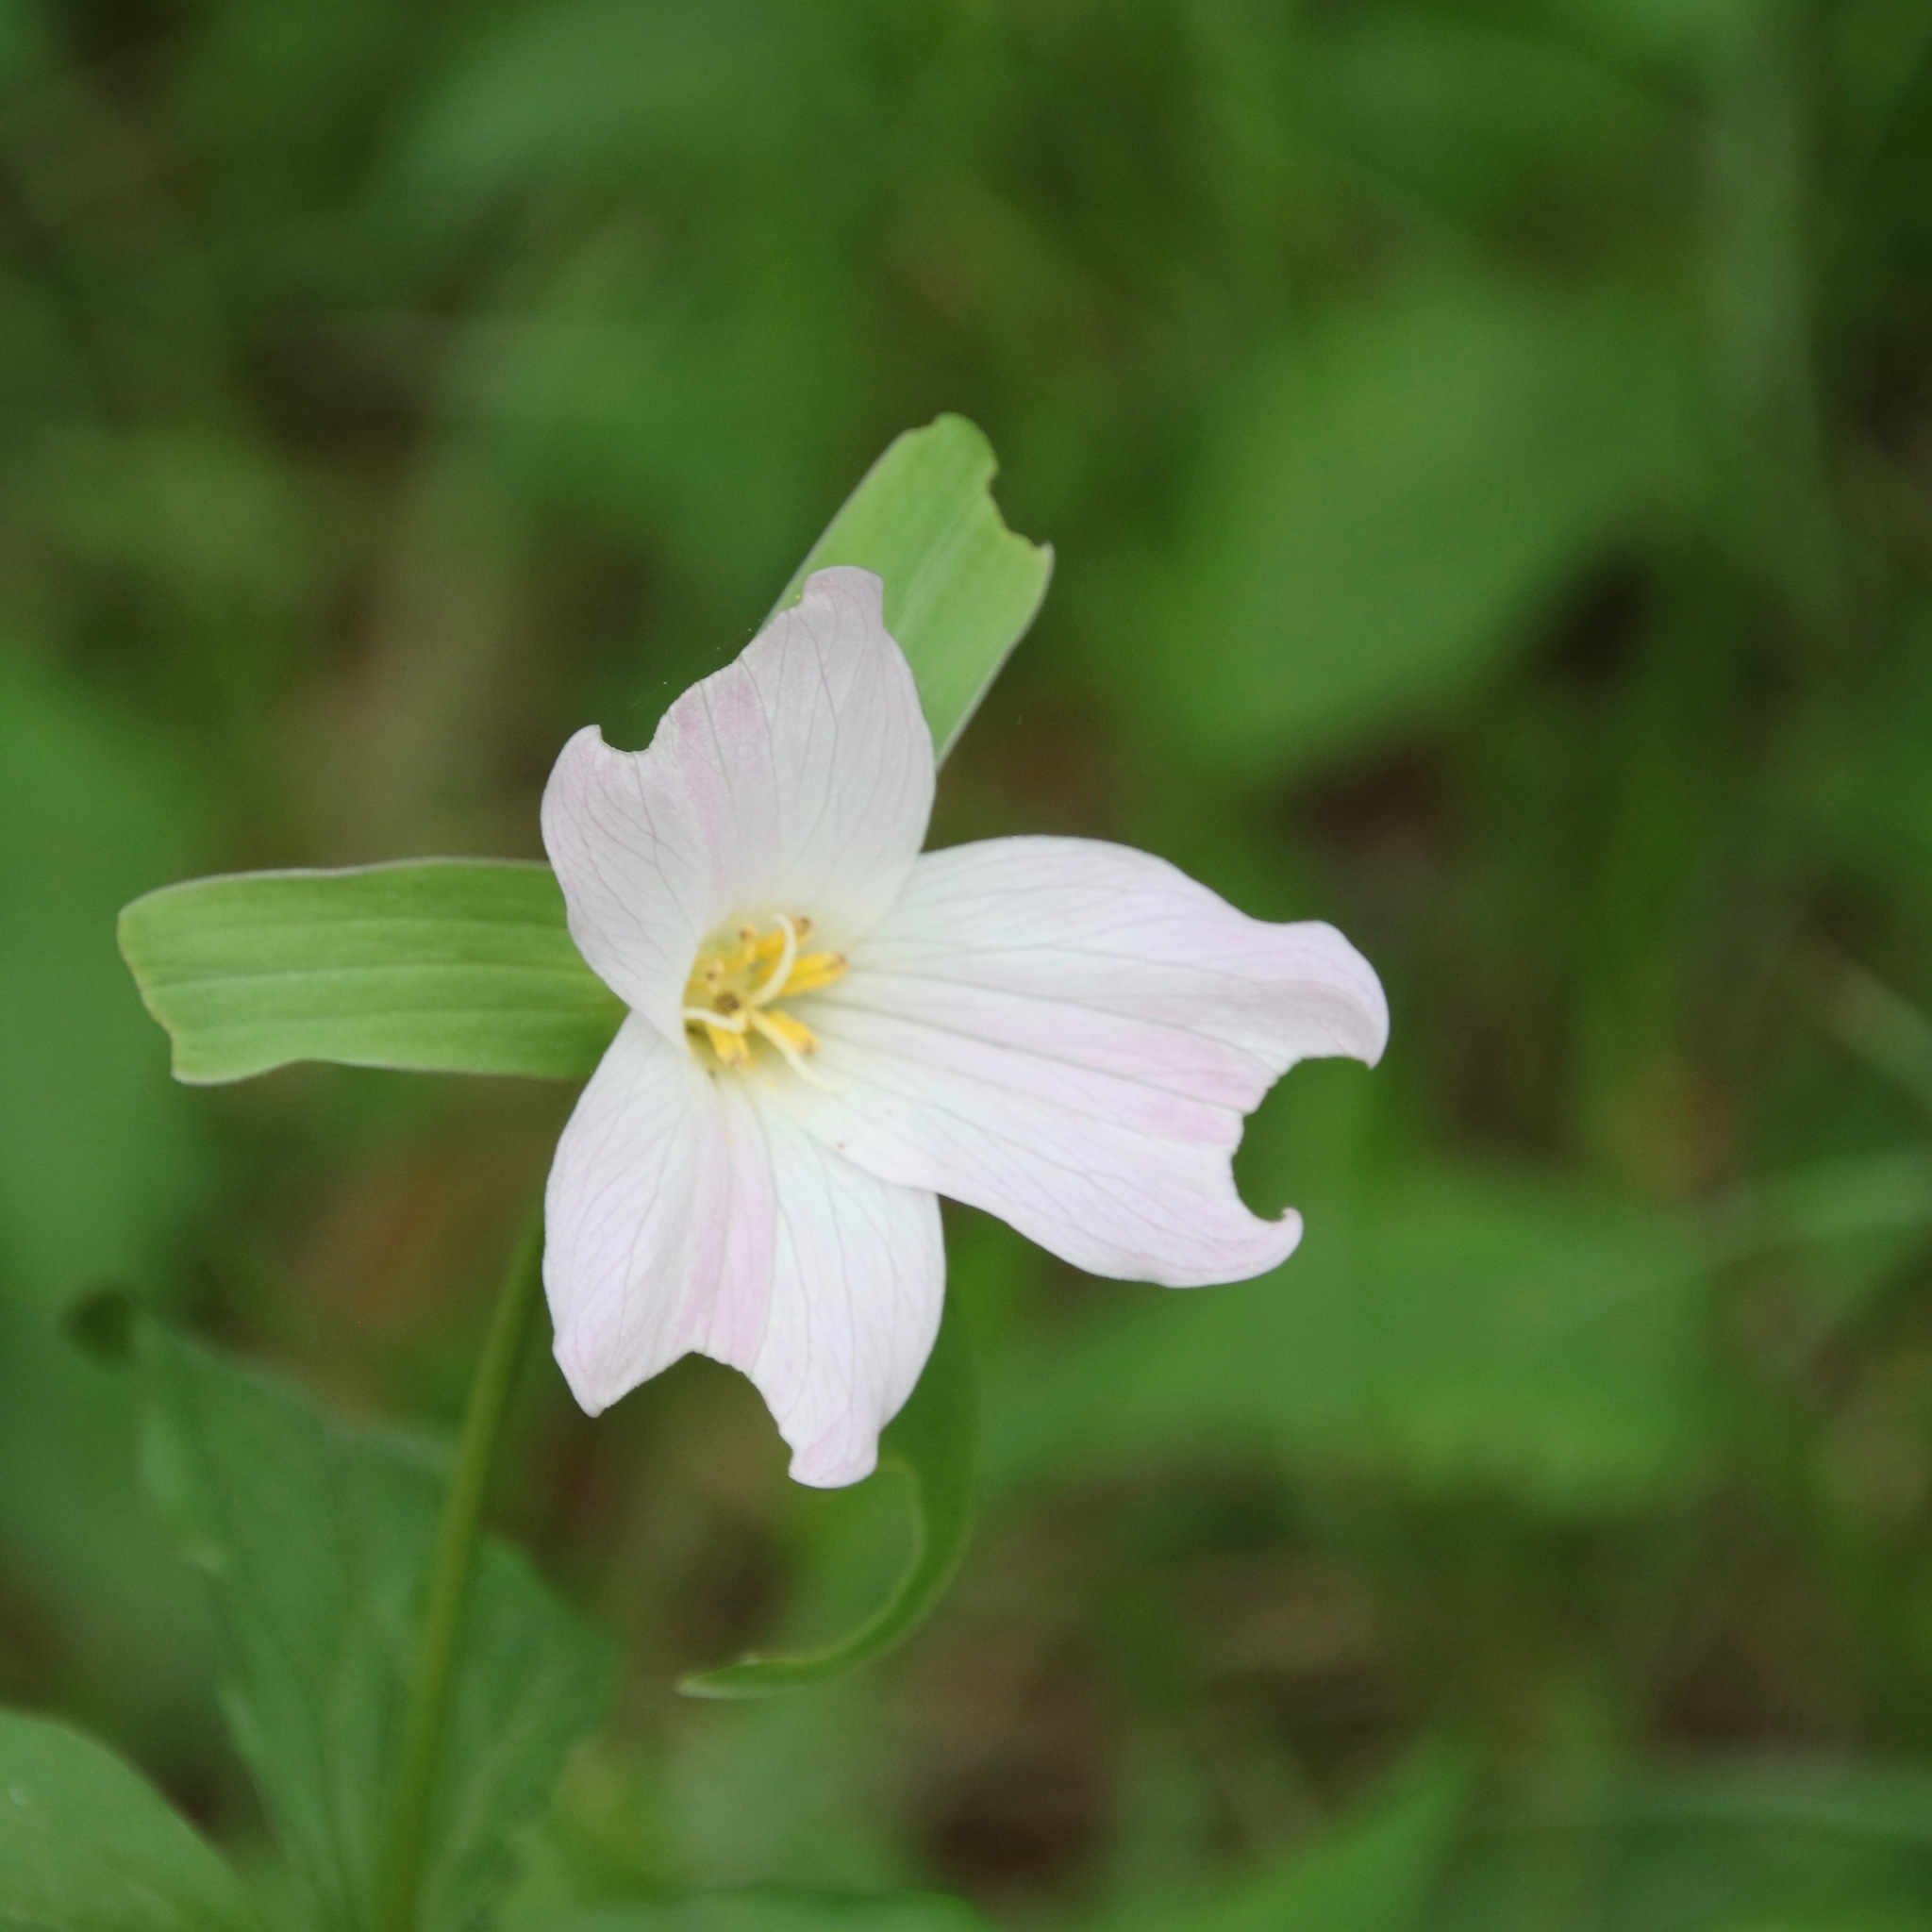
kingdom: Plantae
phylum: Tracheophyta
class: Liliopsida
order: Liliales
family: Melanthiaceae
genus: Trillium
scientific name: Trillium grandiflorum
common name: Great white trillium
